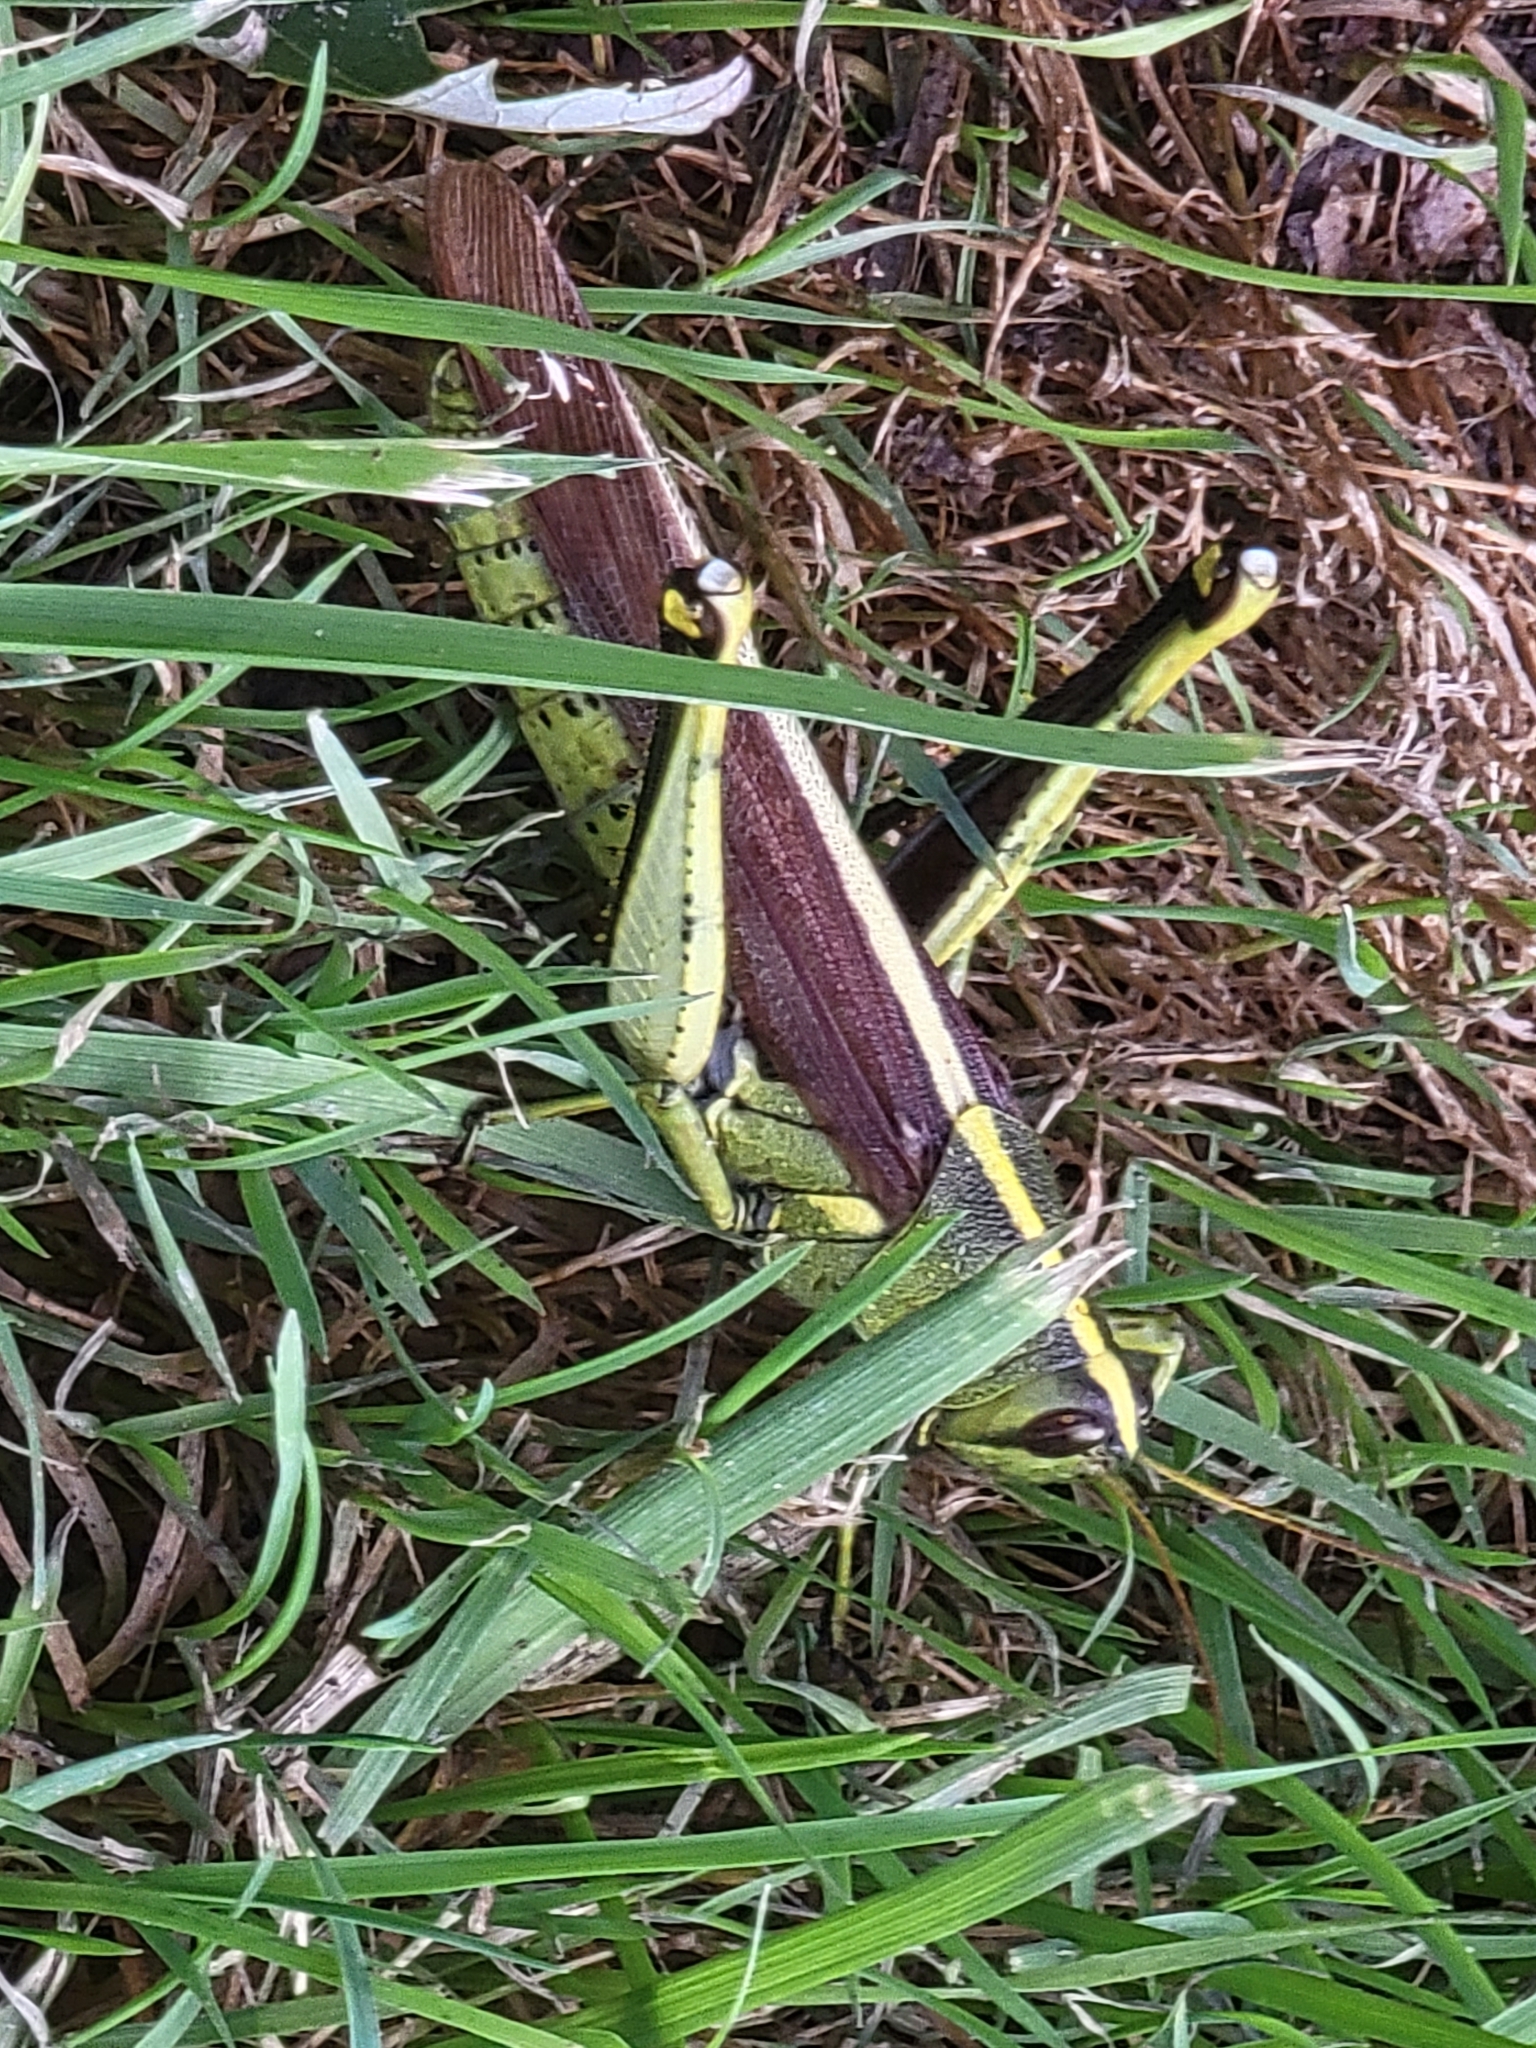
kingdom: Animalia
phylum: Arthropoda
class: Insecta
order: Orthoptera
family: Acrididae
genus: Schistocerca
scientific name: Schistocerca obscura
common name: Obscure bird grasshopper
